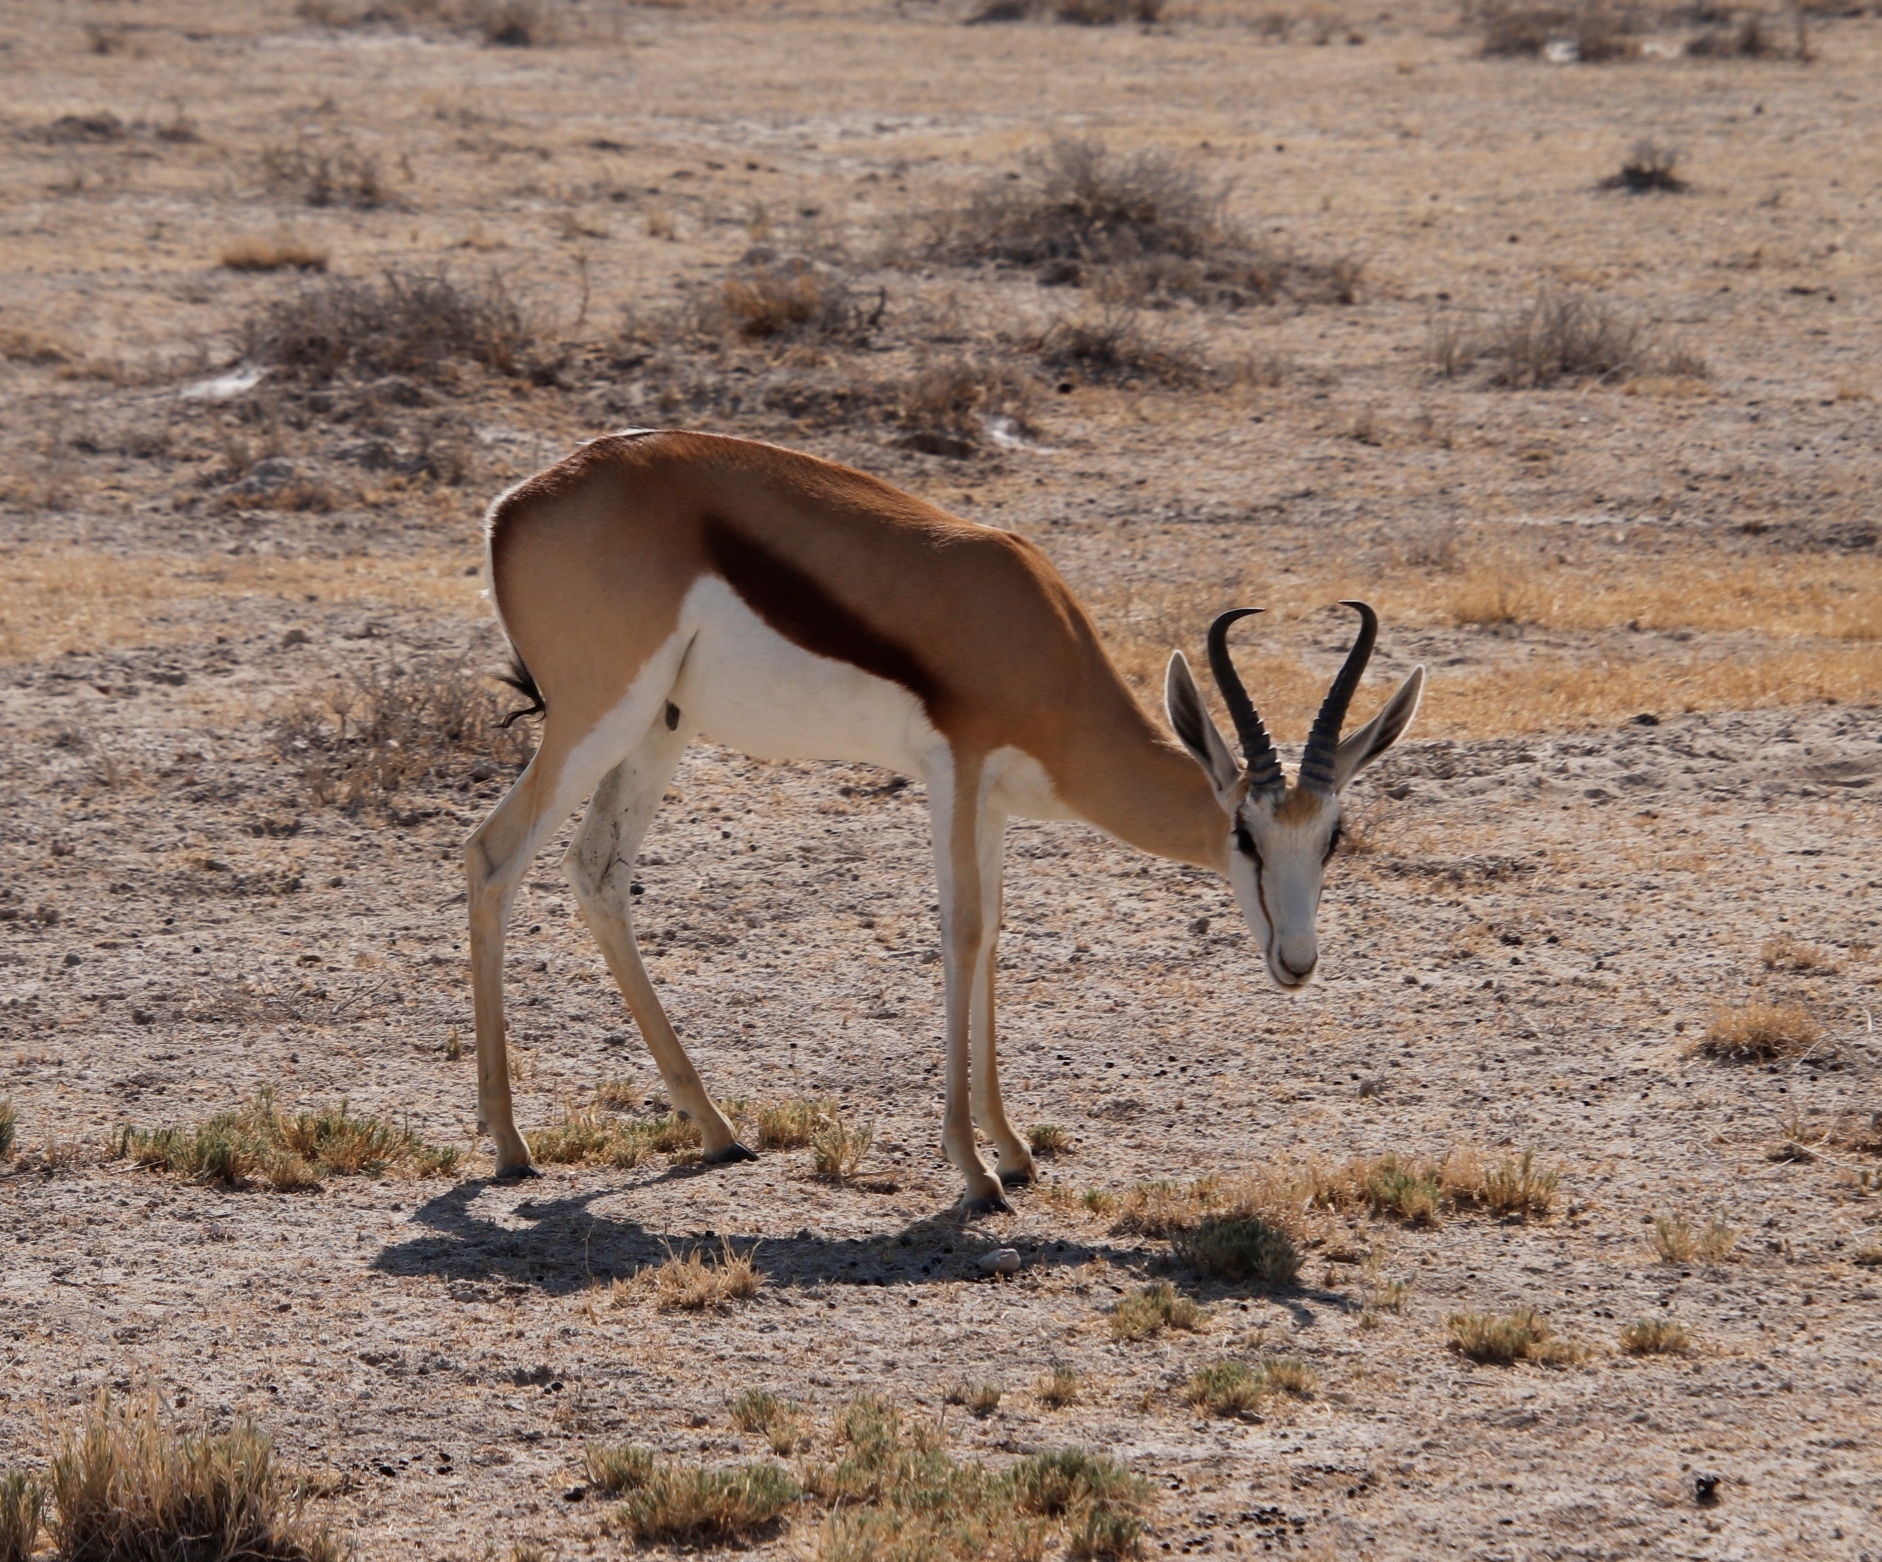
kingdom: Animalia
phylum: Chordata
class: Mammalia
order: Artiodactyla
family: Bovidae
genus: Antidorcas
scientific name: Antidorcas marsupialis
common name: Springbok
